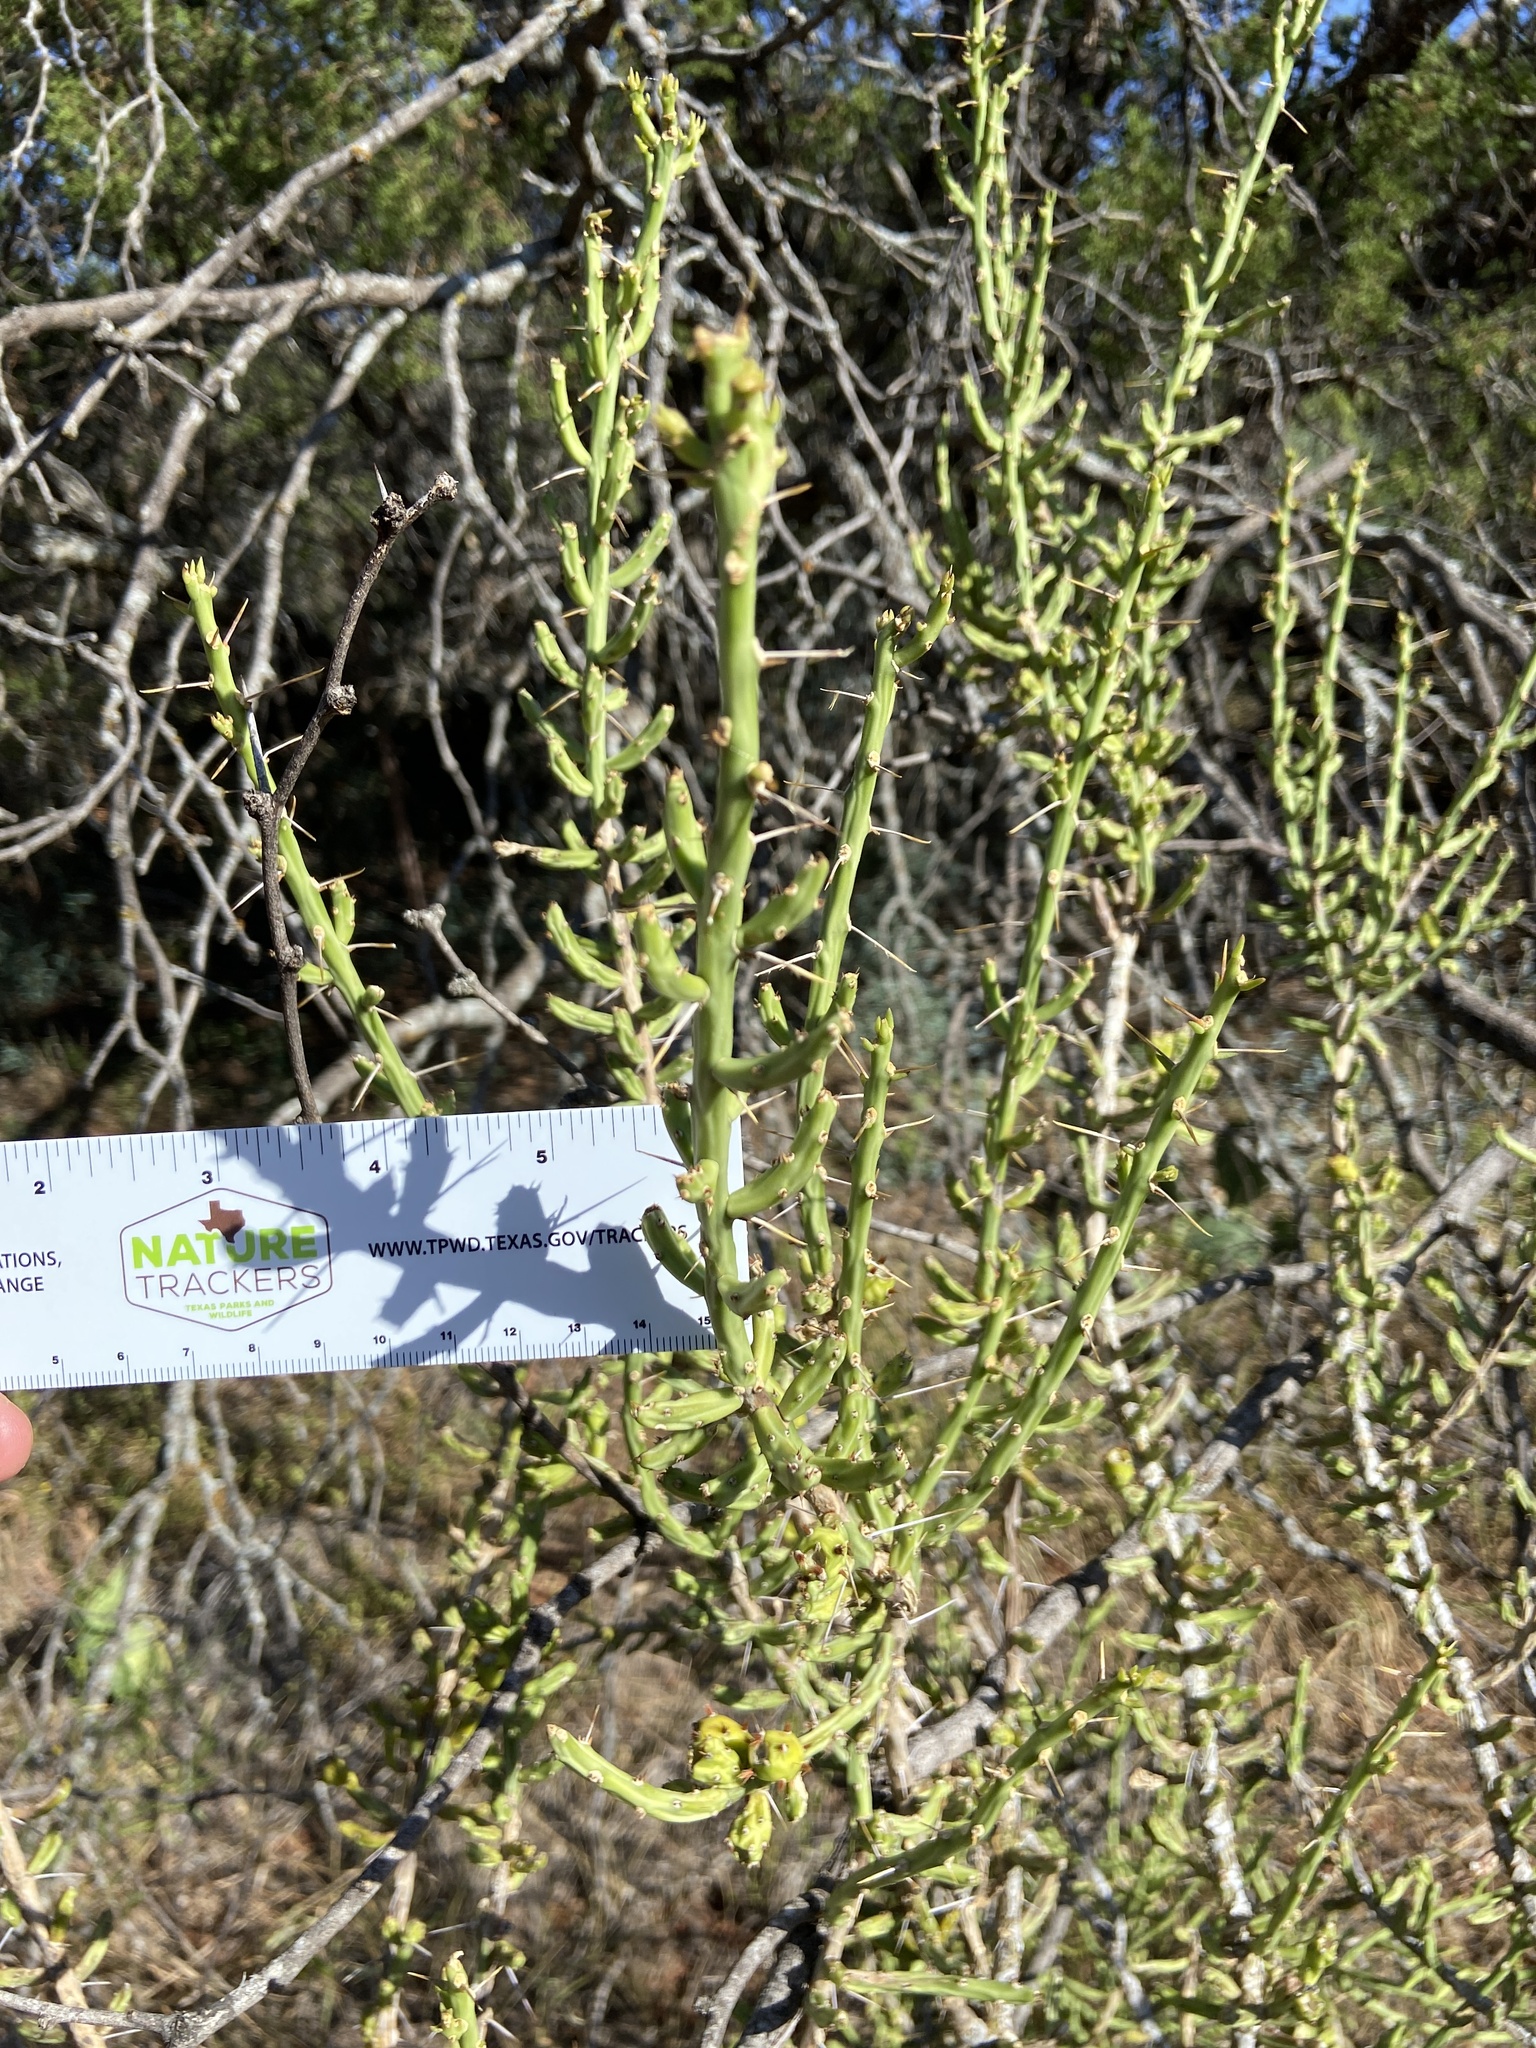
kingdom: Plantae
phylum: Tracheophyta
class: Magnoliopsida
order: Caryophyllales
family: Cactaceae
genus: Cylindropuntia
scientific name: Cylindropuntia leptocaulis
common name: Christmas cactus
